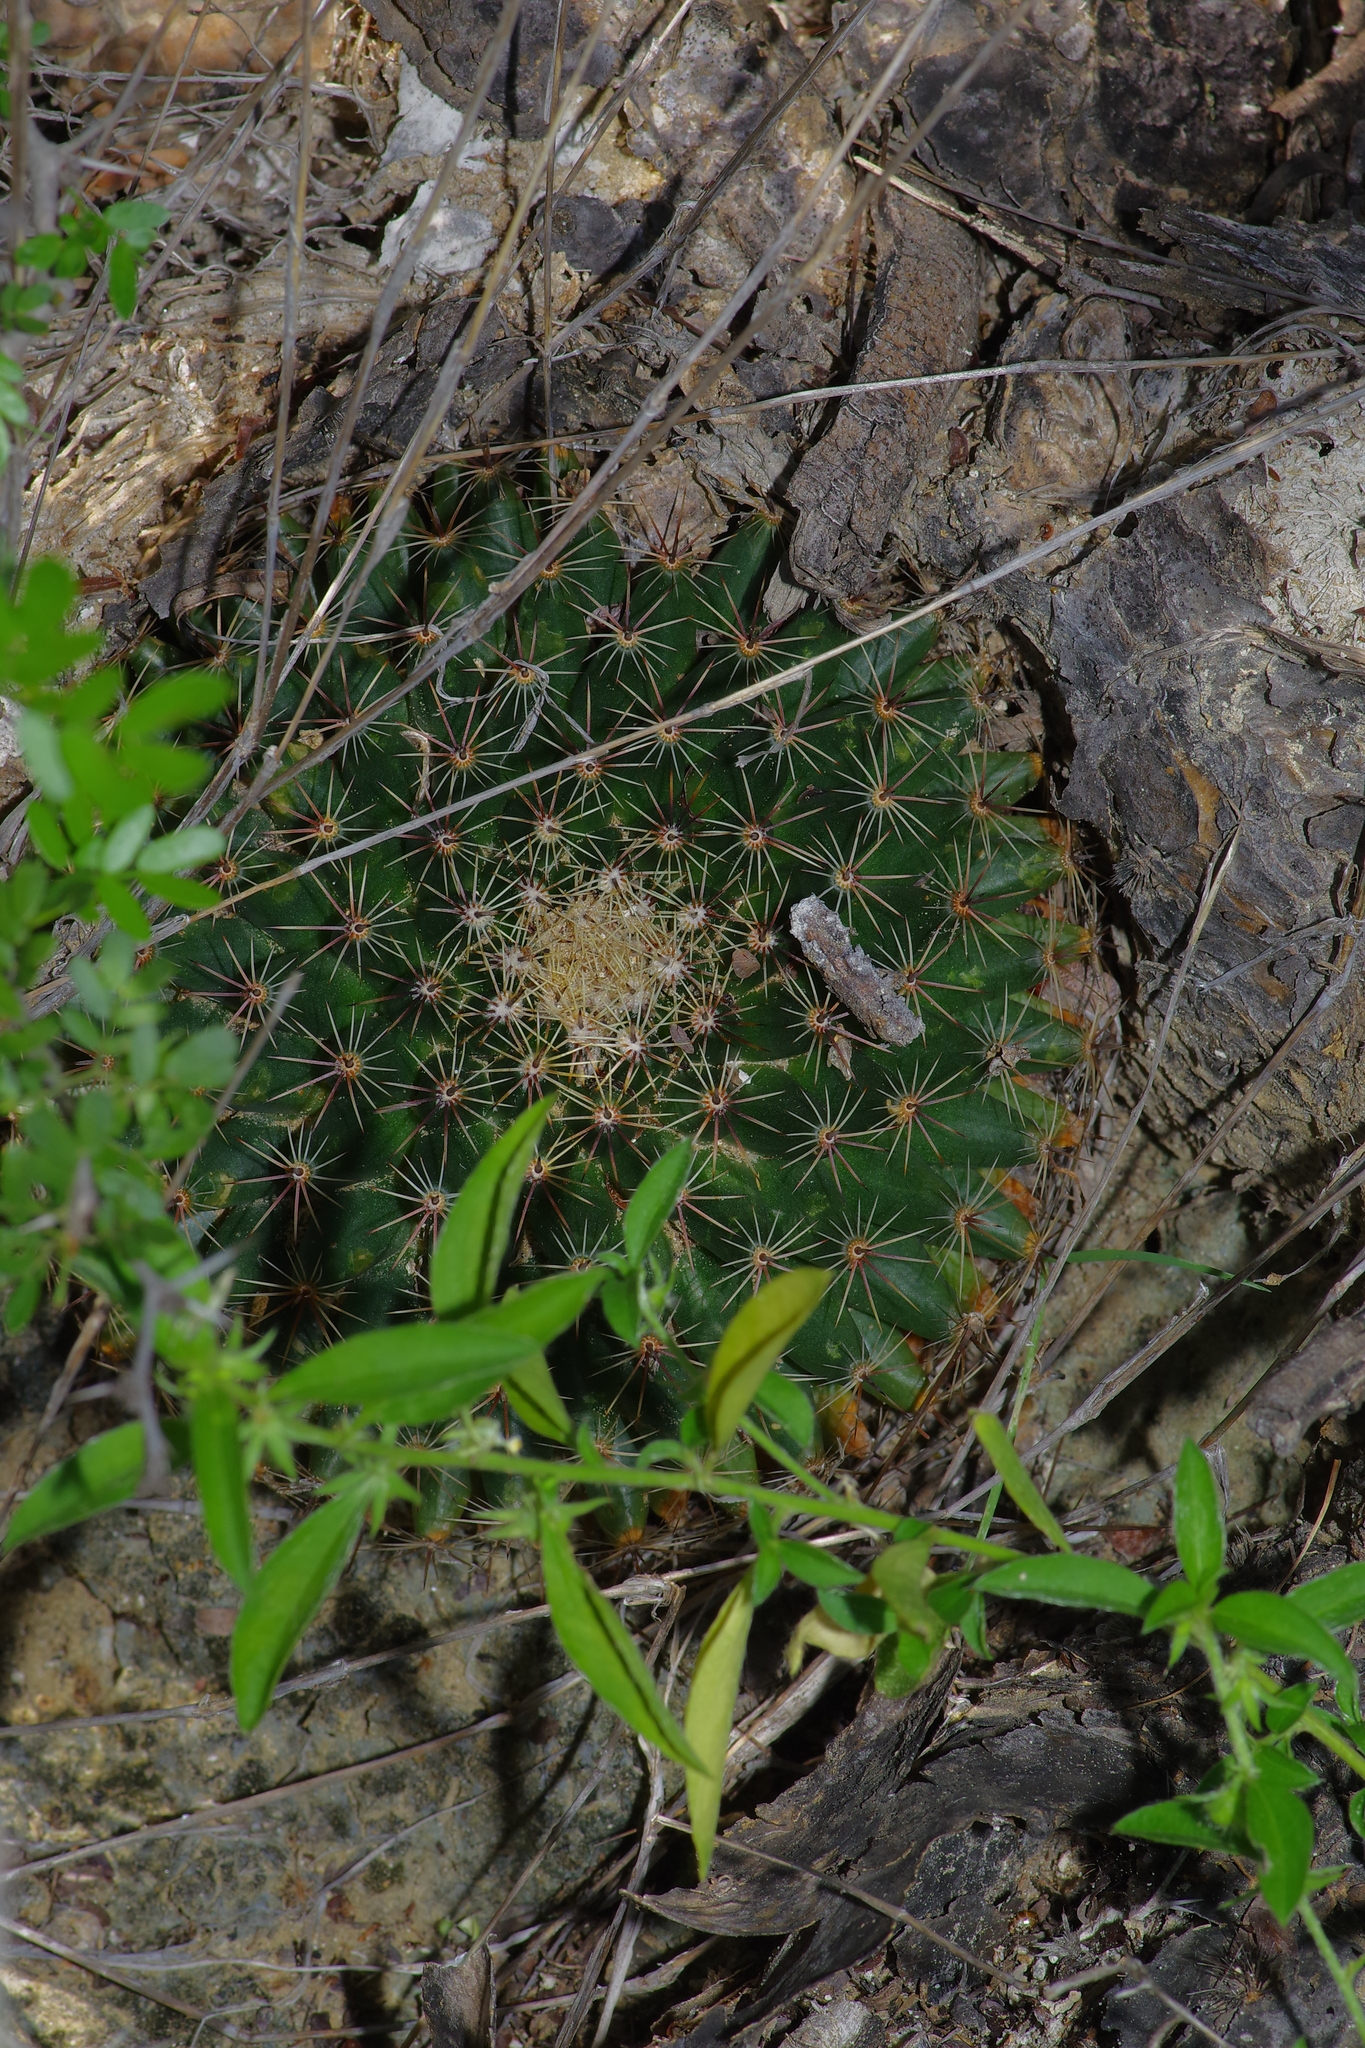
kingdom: Plantae
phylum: Tracheophyta
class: Magnoliopsida
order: Caryophyllales
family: Cactaceae
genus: Mammillaria
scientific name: Mammillaria heyderi
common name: Little nipple cactus
